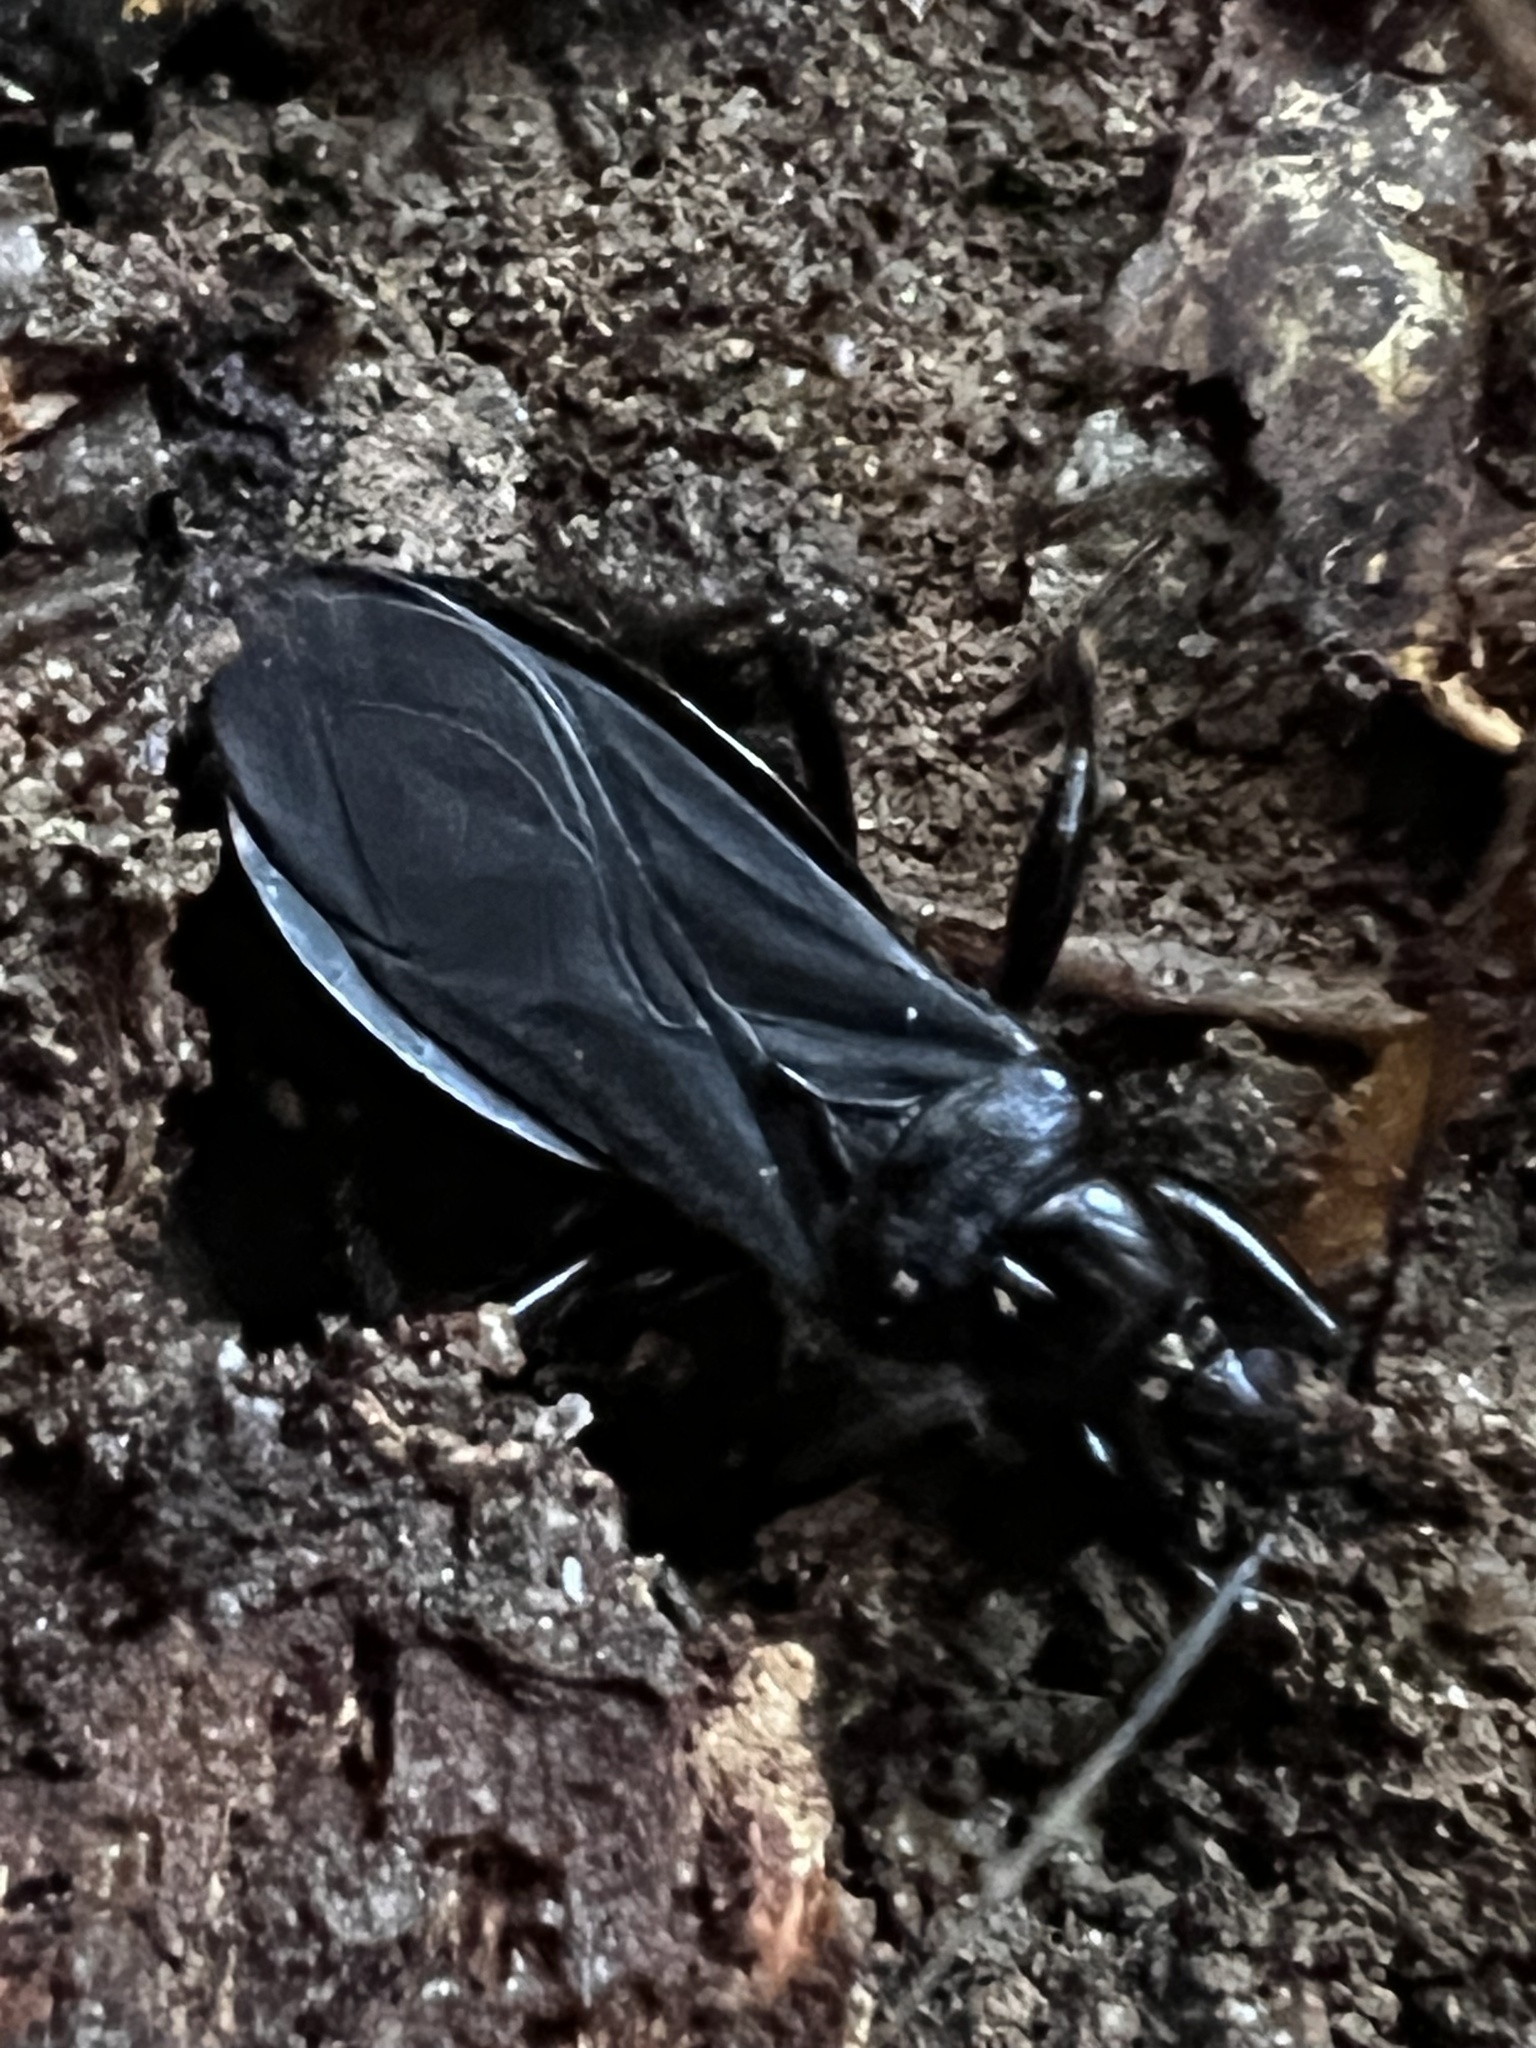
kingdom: Animalia
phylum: Arthropoda
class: Insecta
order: Hemiptera
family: Reduviidae
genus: Melanolestes
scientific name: Melanolestes picipes
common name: Assassin bug
